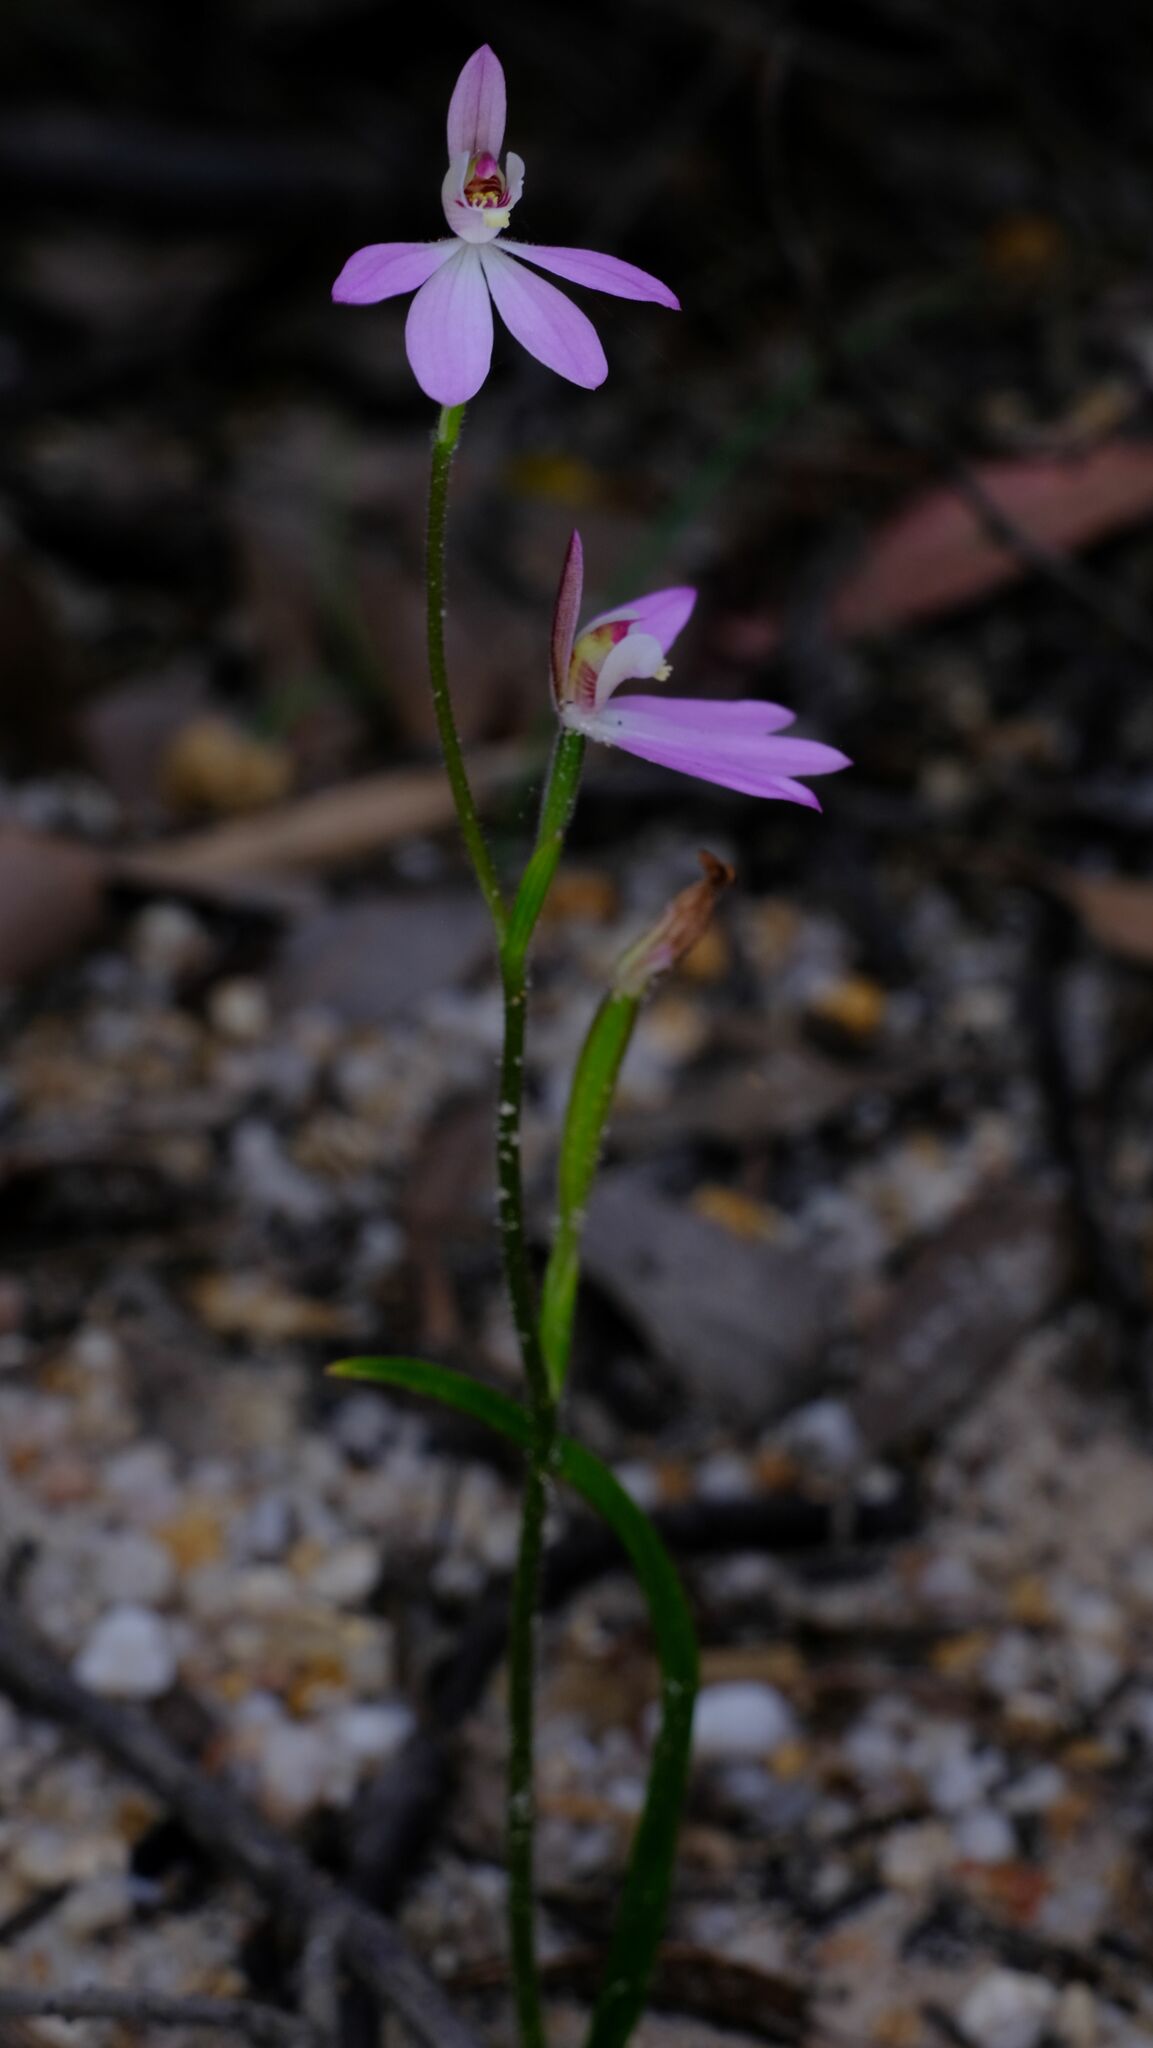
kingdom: Plantae
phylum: Tracheophyta
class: Liliopsida
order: Asparagales
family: Orchidaceae
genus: Caladenia
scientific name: Caladenia carnea
